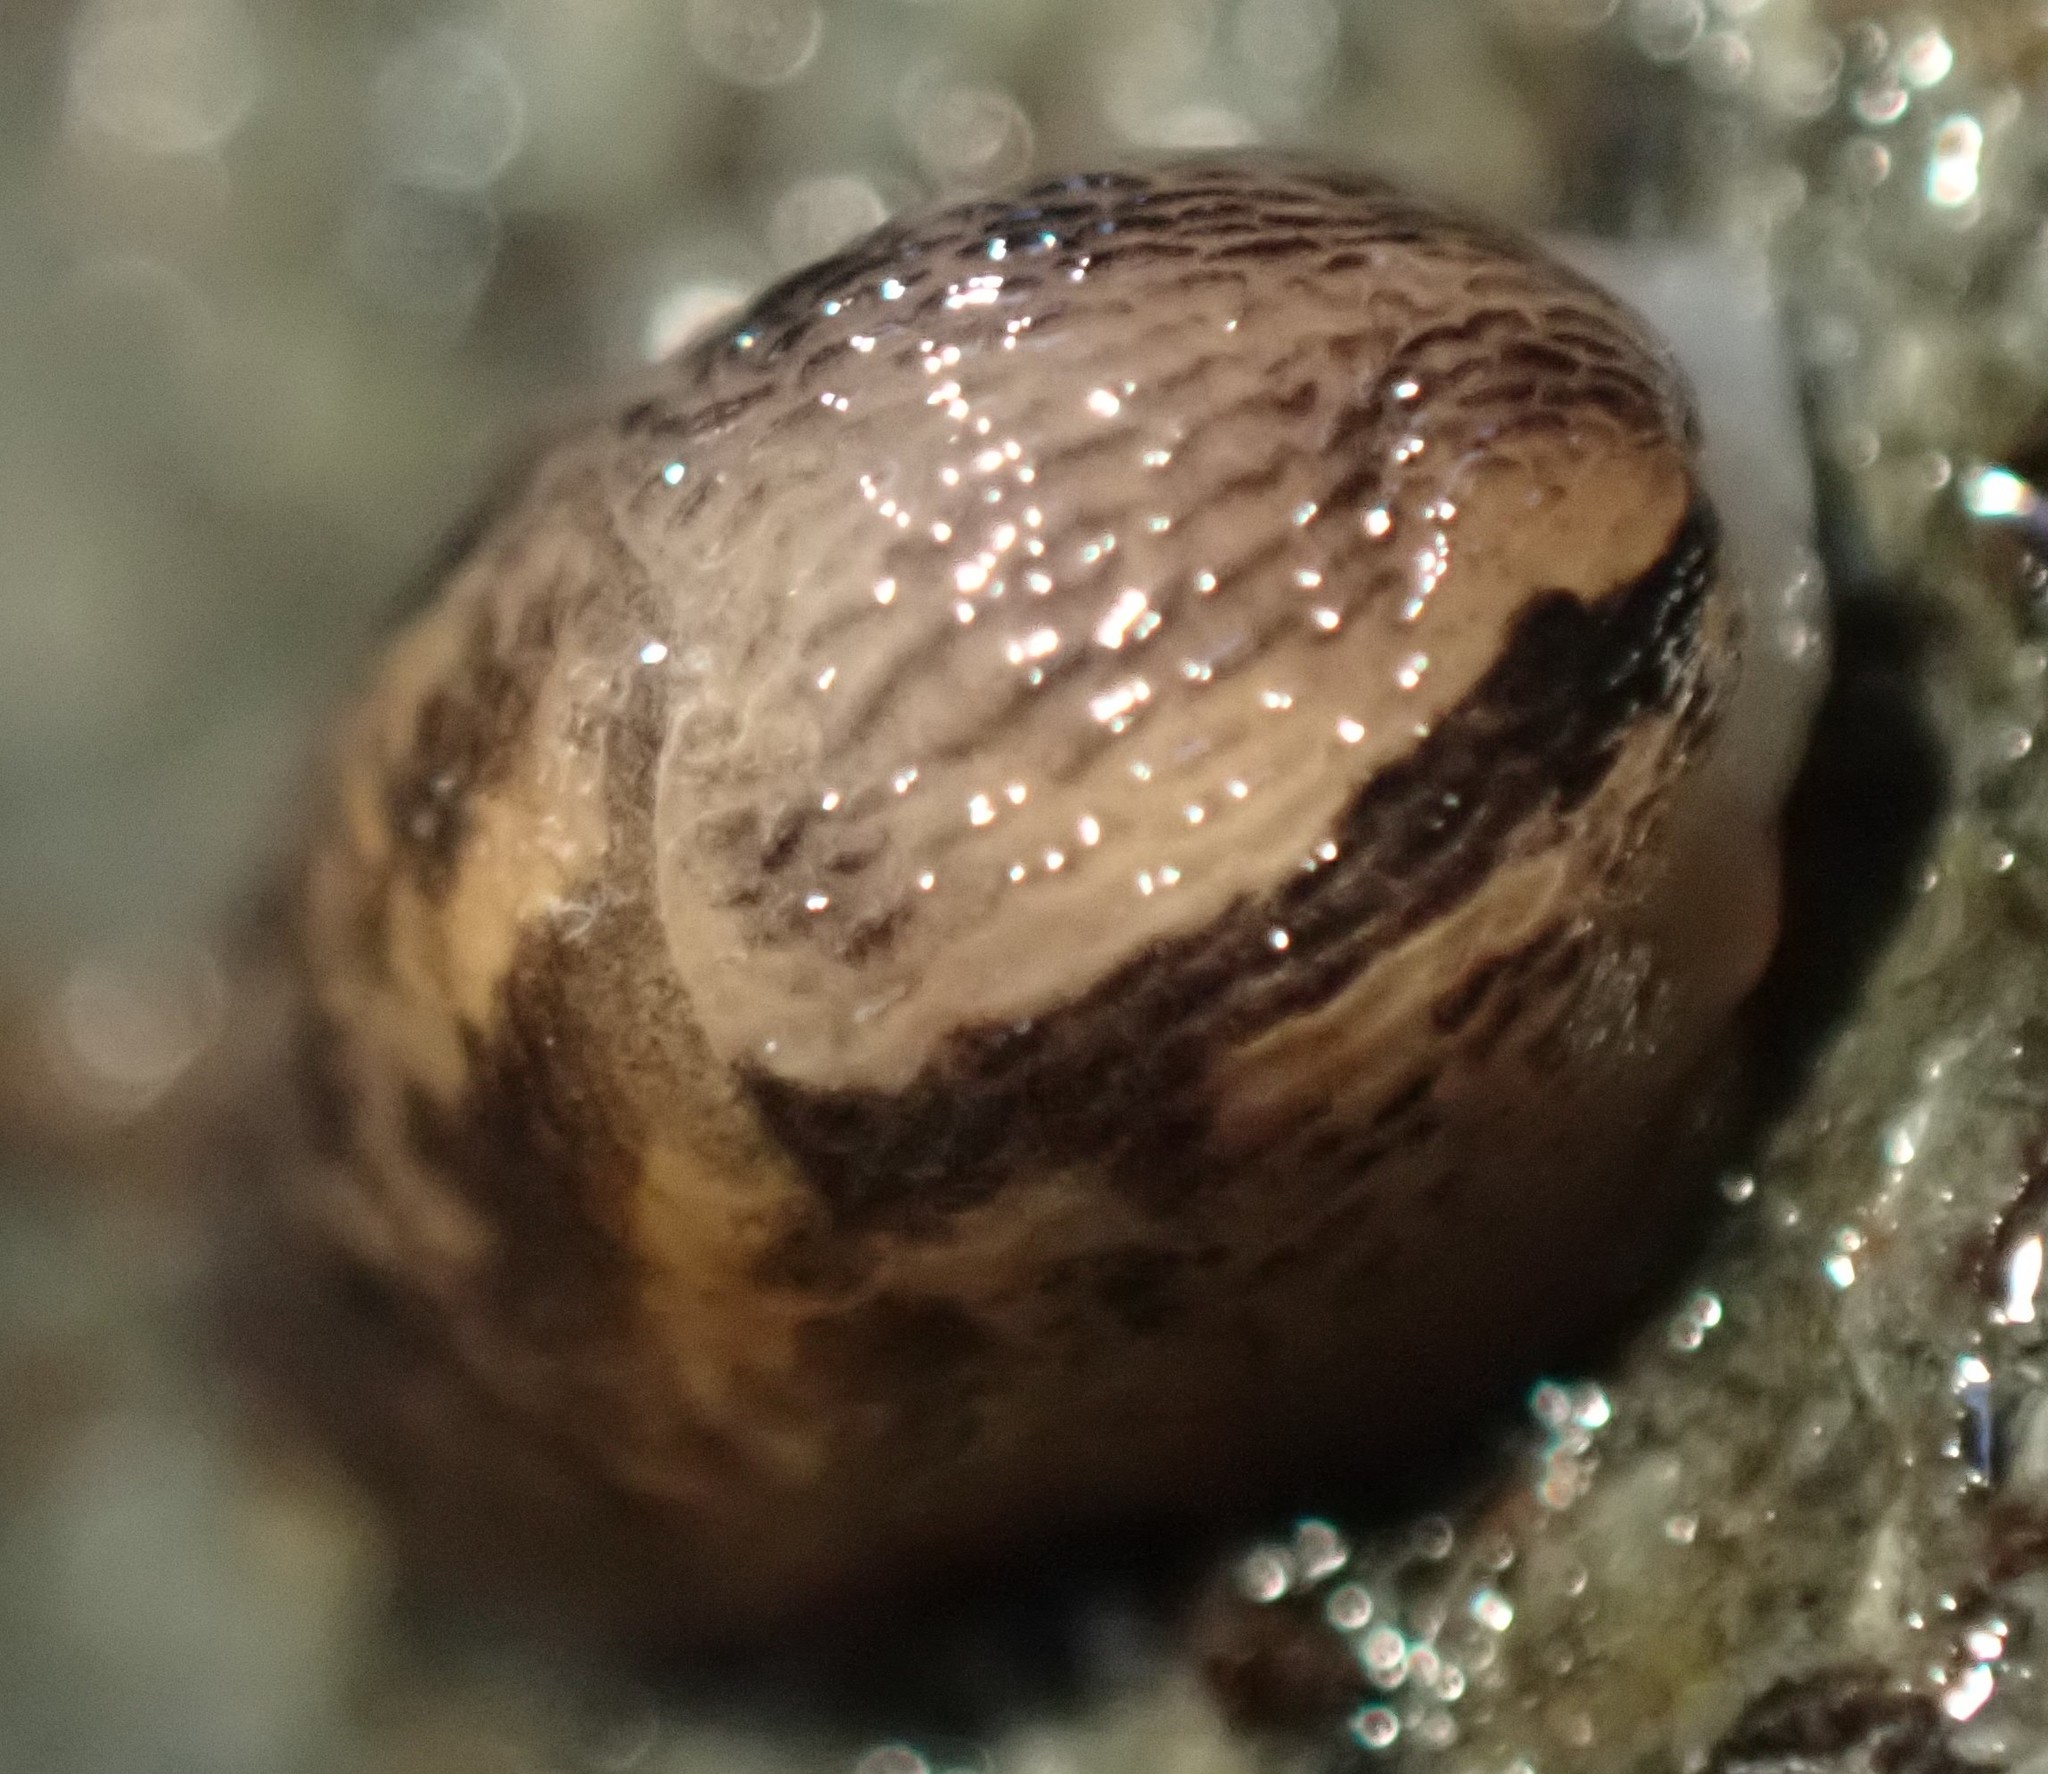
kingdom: Animalia
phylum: Mollusca
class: Gastropoda
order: Stylommatophora
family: Limacidae
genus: Limax
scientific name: Limax maximus
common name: Great grey slug
